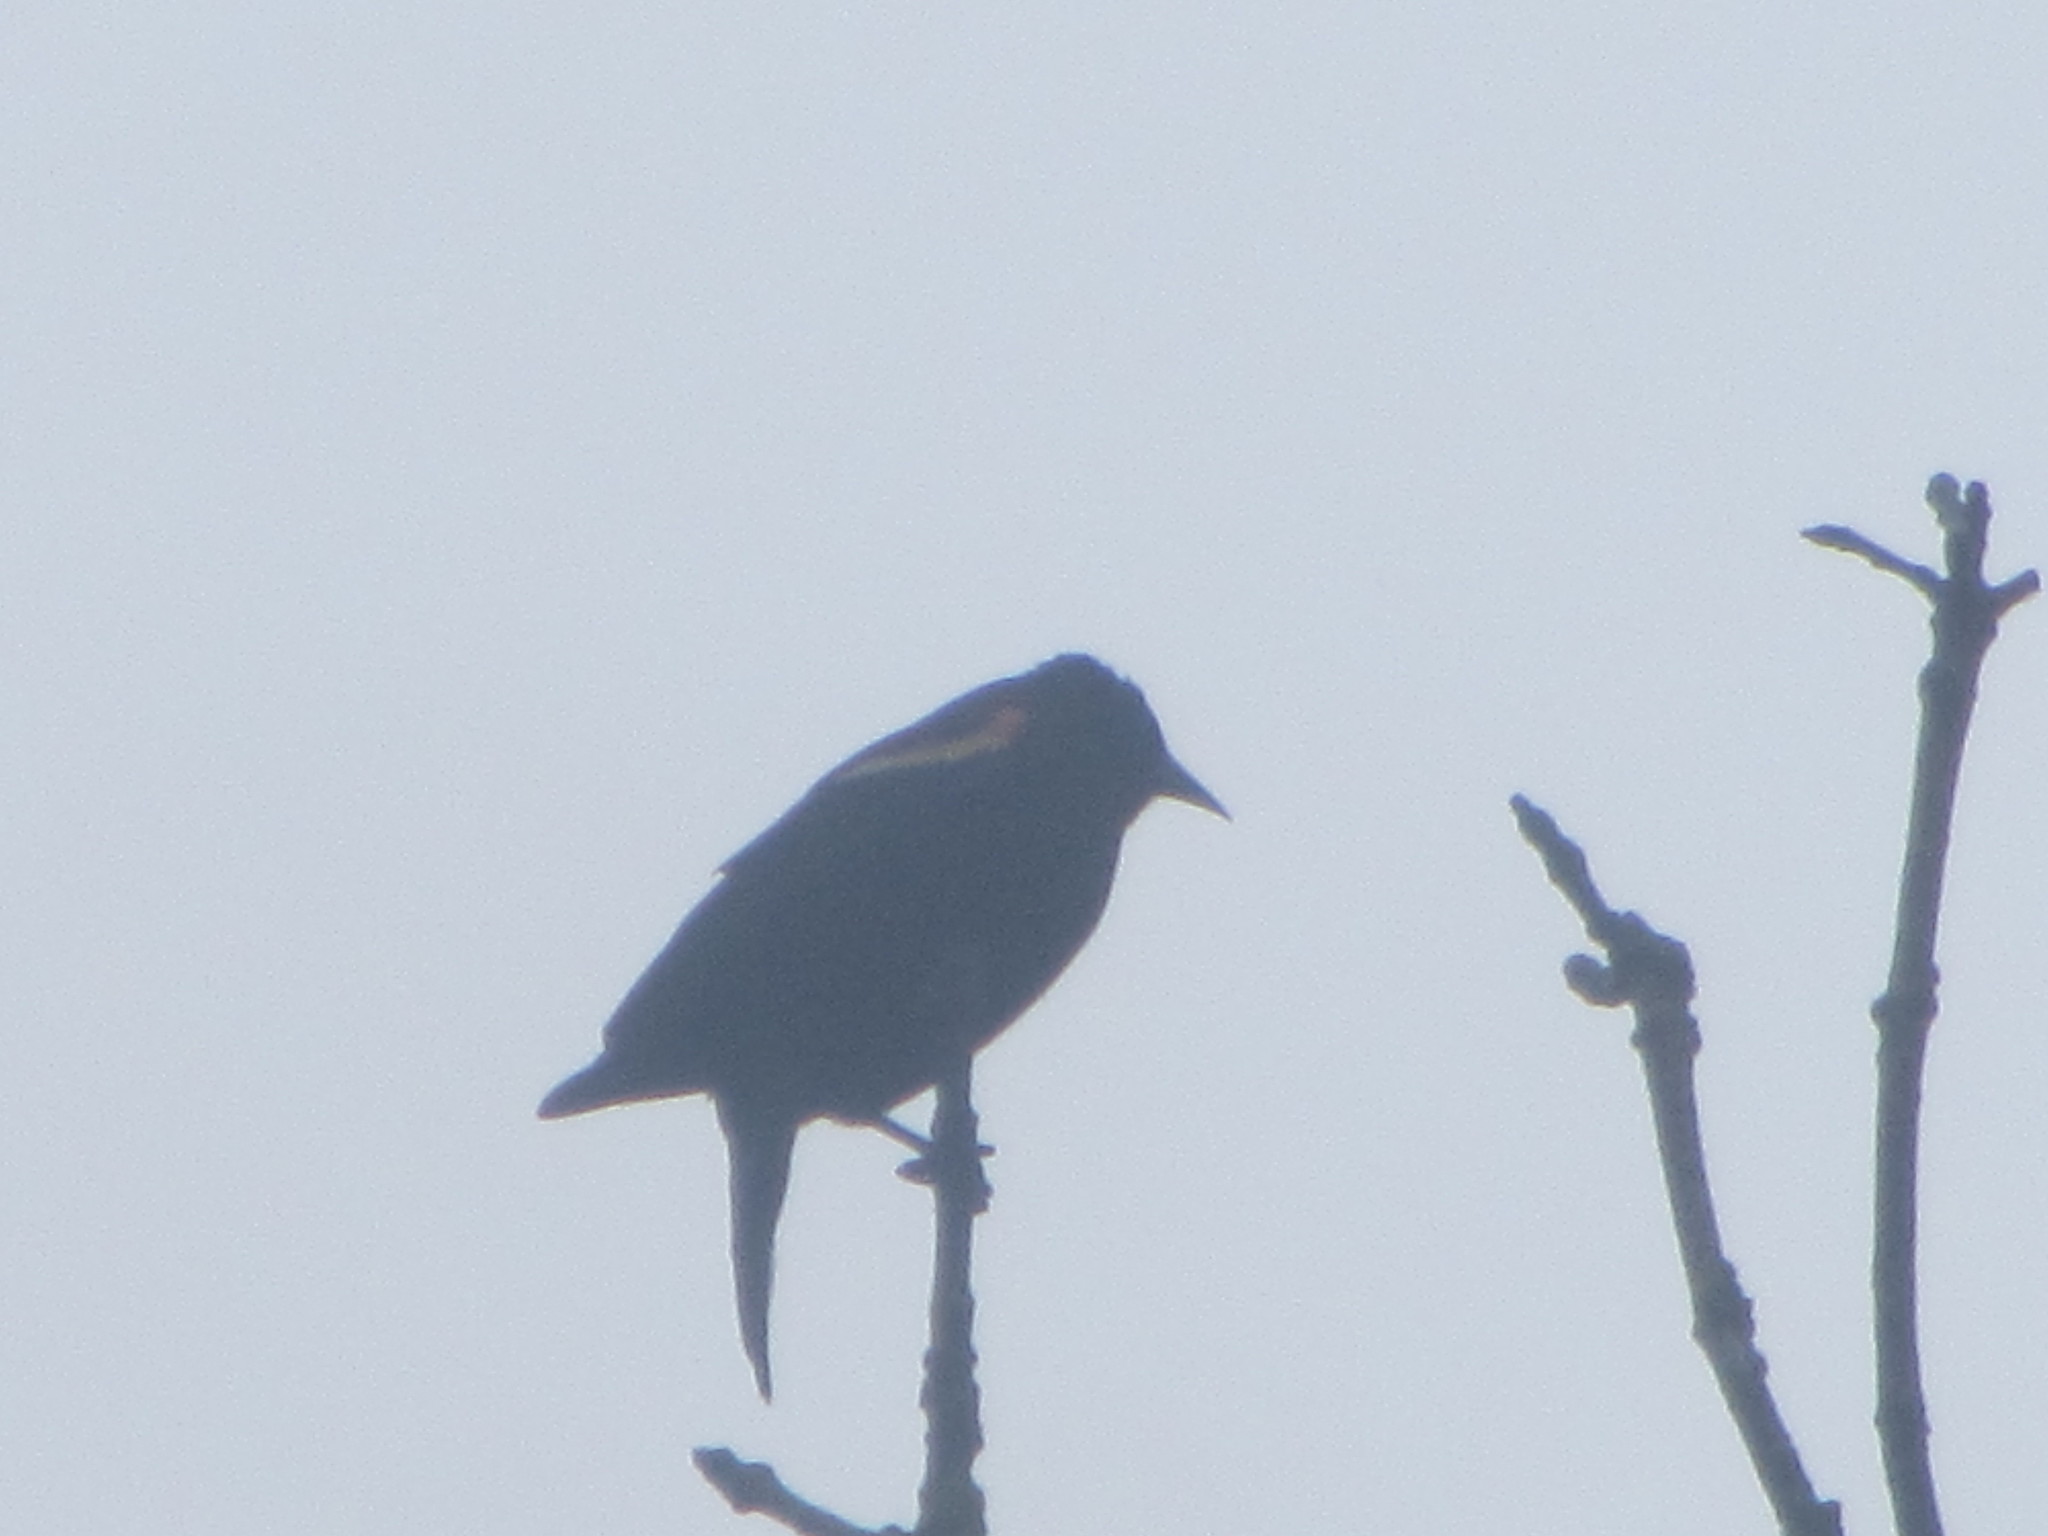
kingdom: Animalia
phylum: Chordata
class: Aves
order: Passeriformes
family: Icteridae
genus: Agelaius
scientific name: Agelaius phoeniceus
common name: Red-winged blackbird
